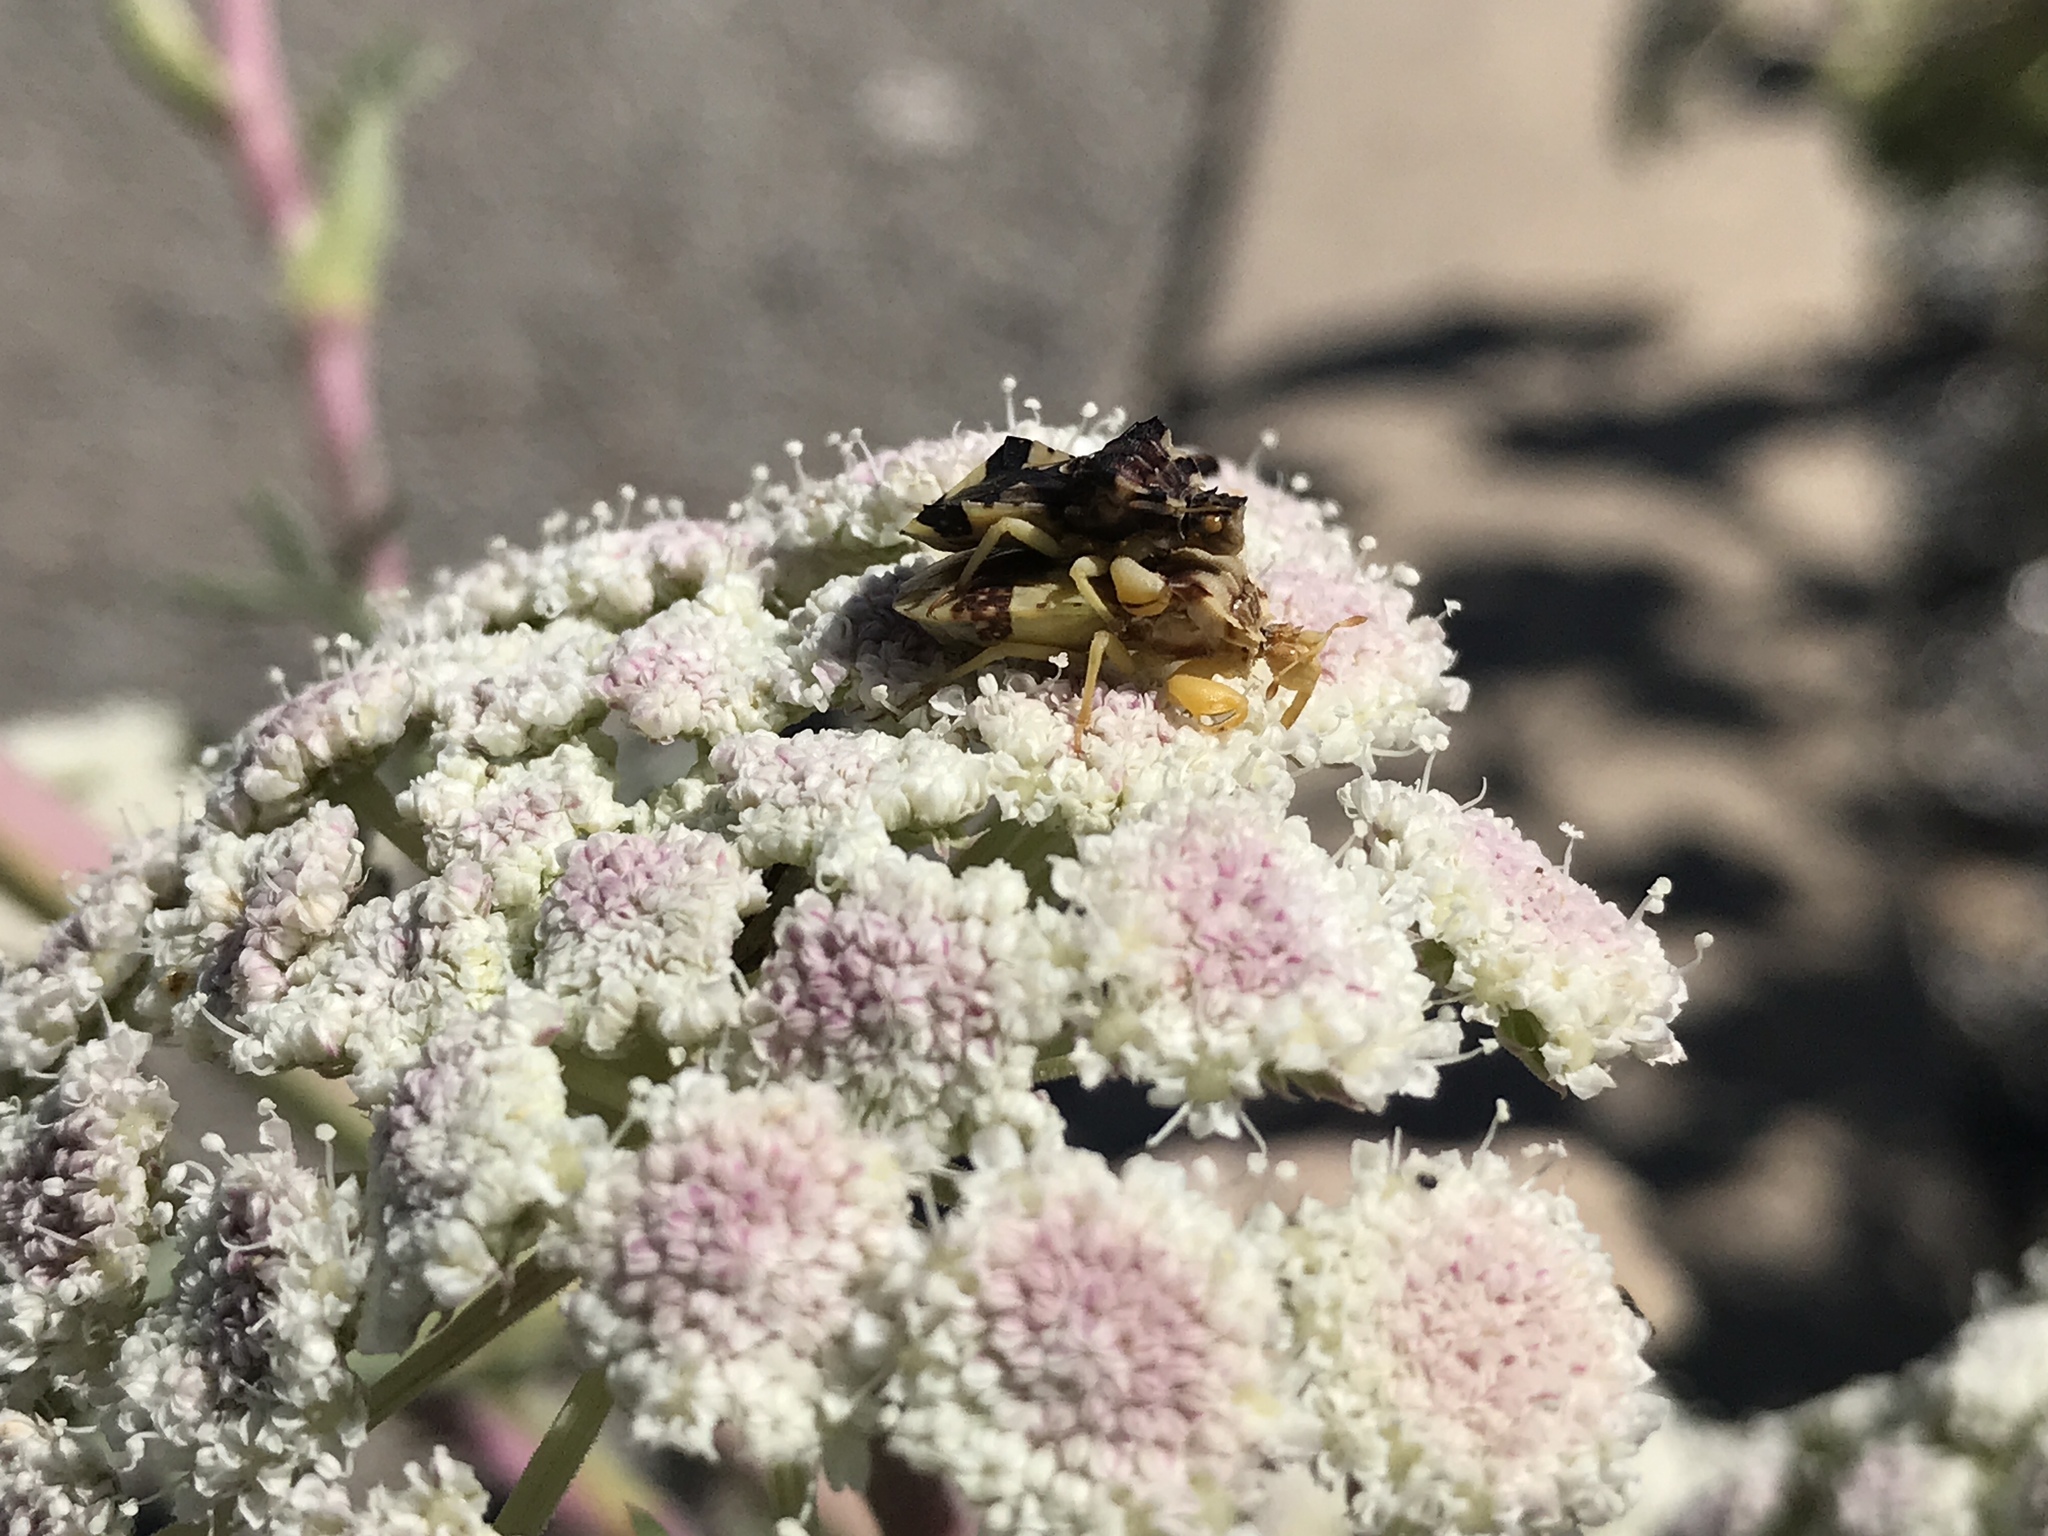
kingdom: Animalia
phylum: Arthropoda
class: Insecta
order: Hemiptera
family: Reduviidae
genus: Phymata
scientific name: Phymata americana
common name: Jagged ambush bug
